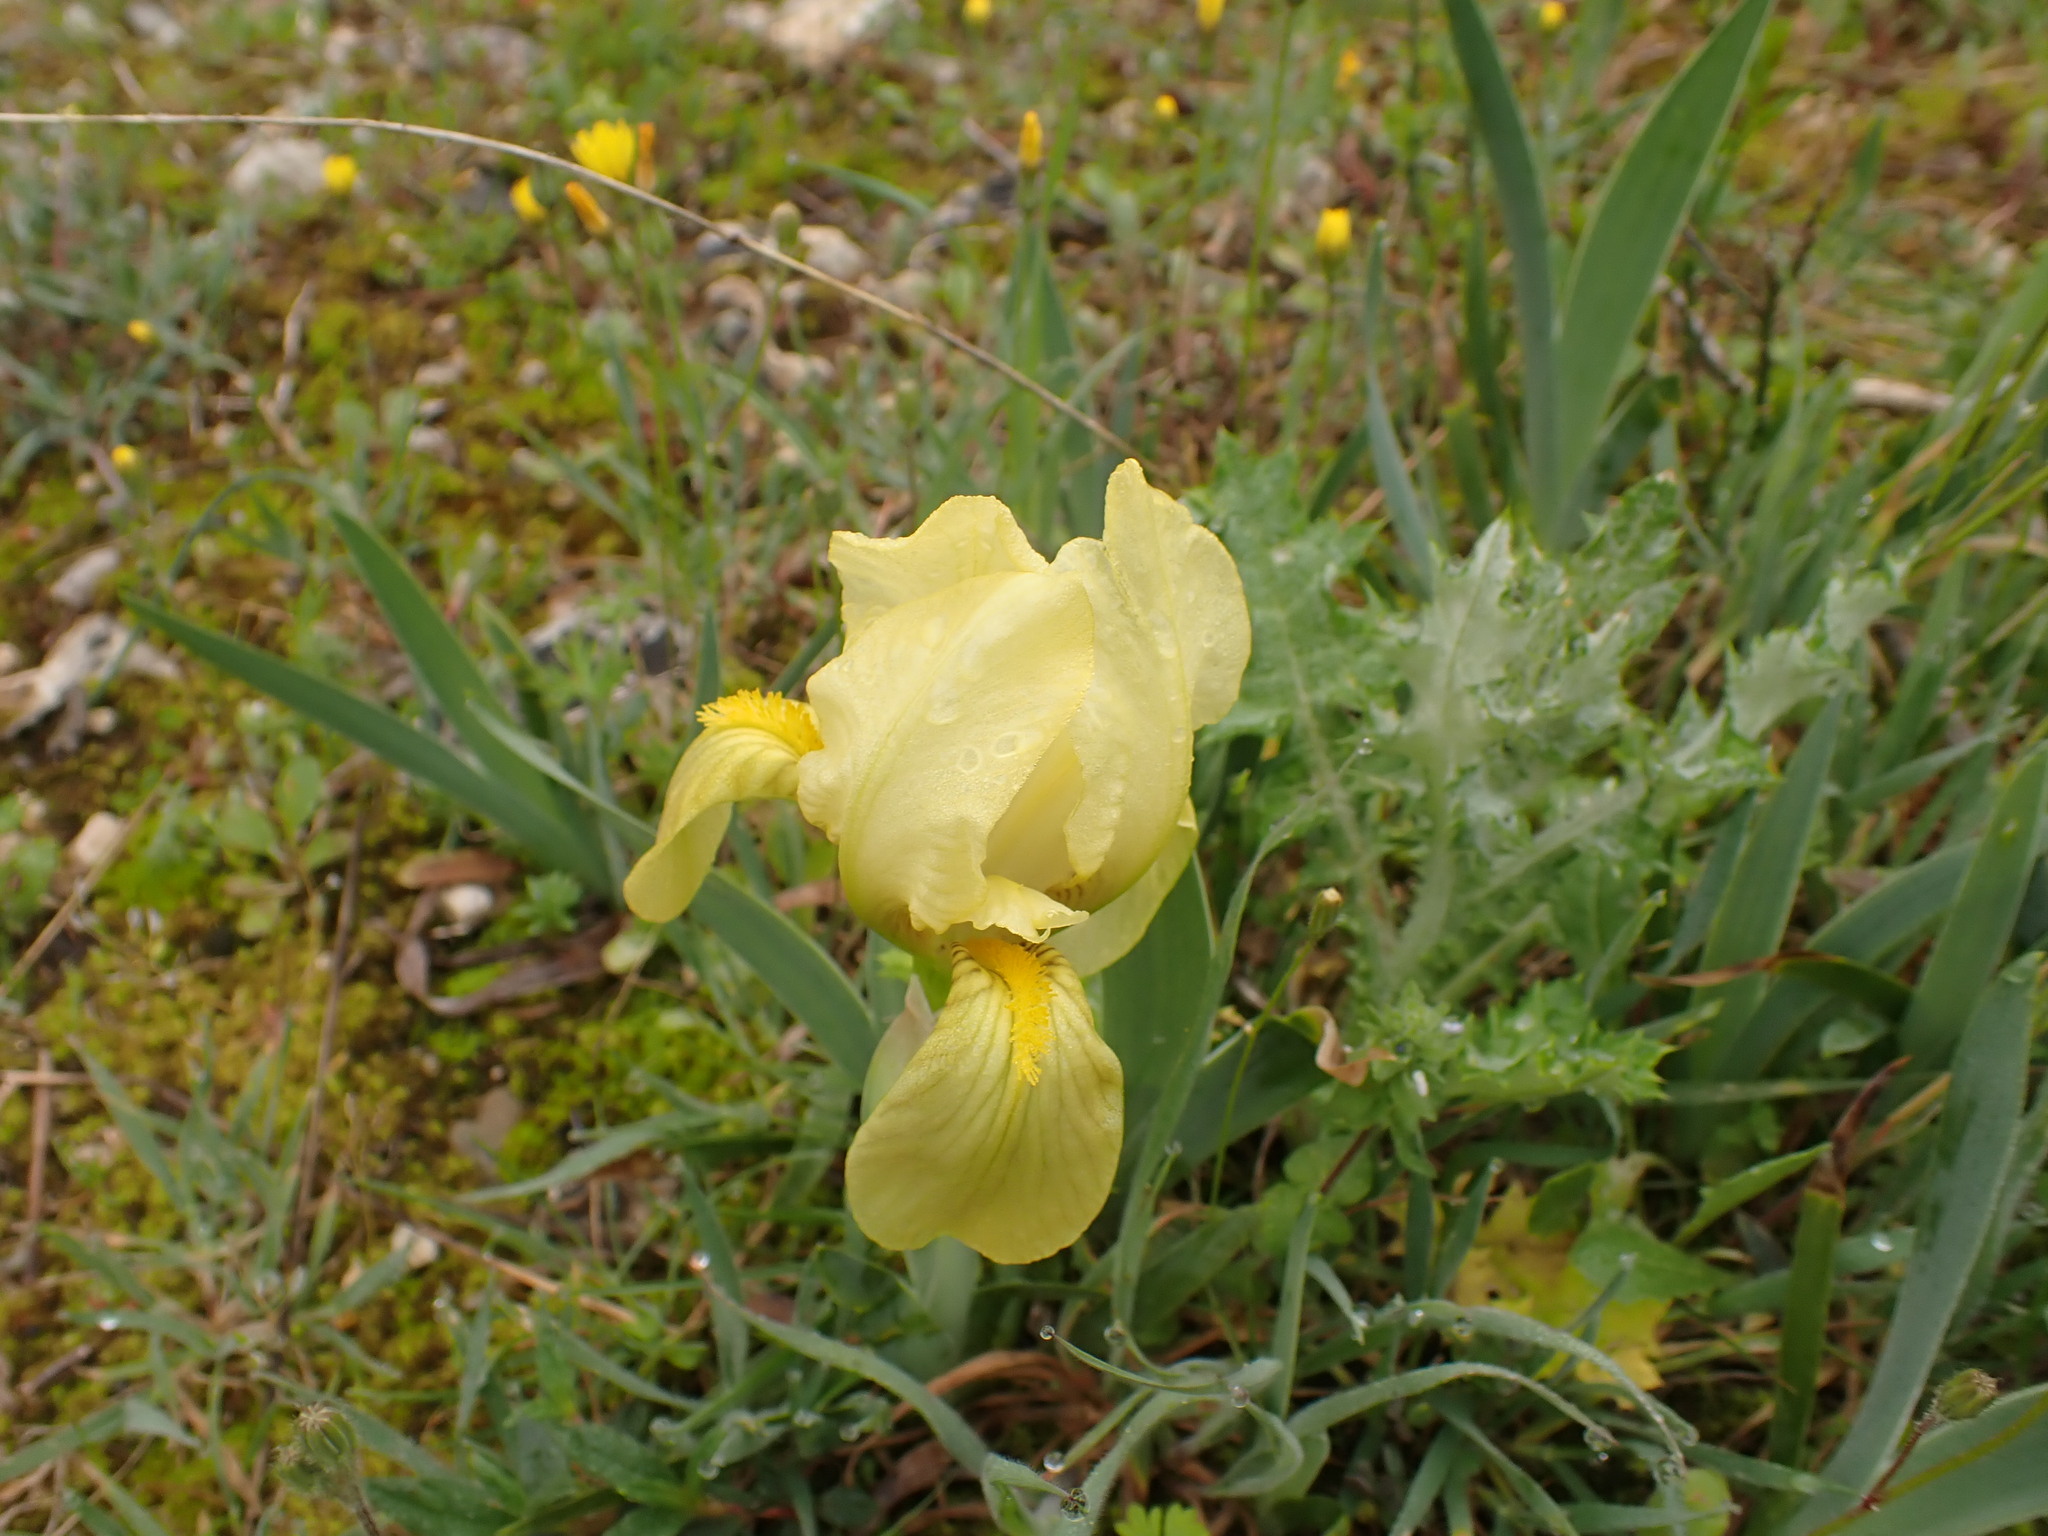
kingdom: Plantae
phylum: Tracheophyta
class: Liliopsida
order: Asparagales
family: Iridaceae
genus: Iris
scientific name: Iris lutescens
